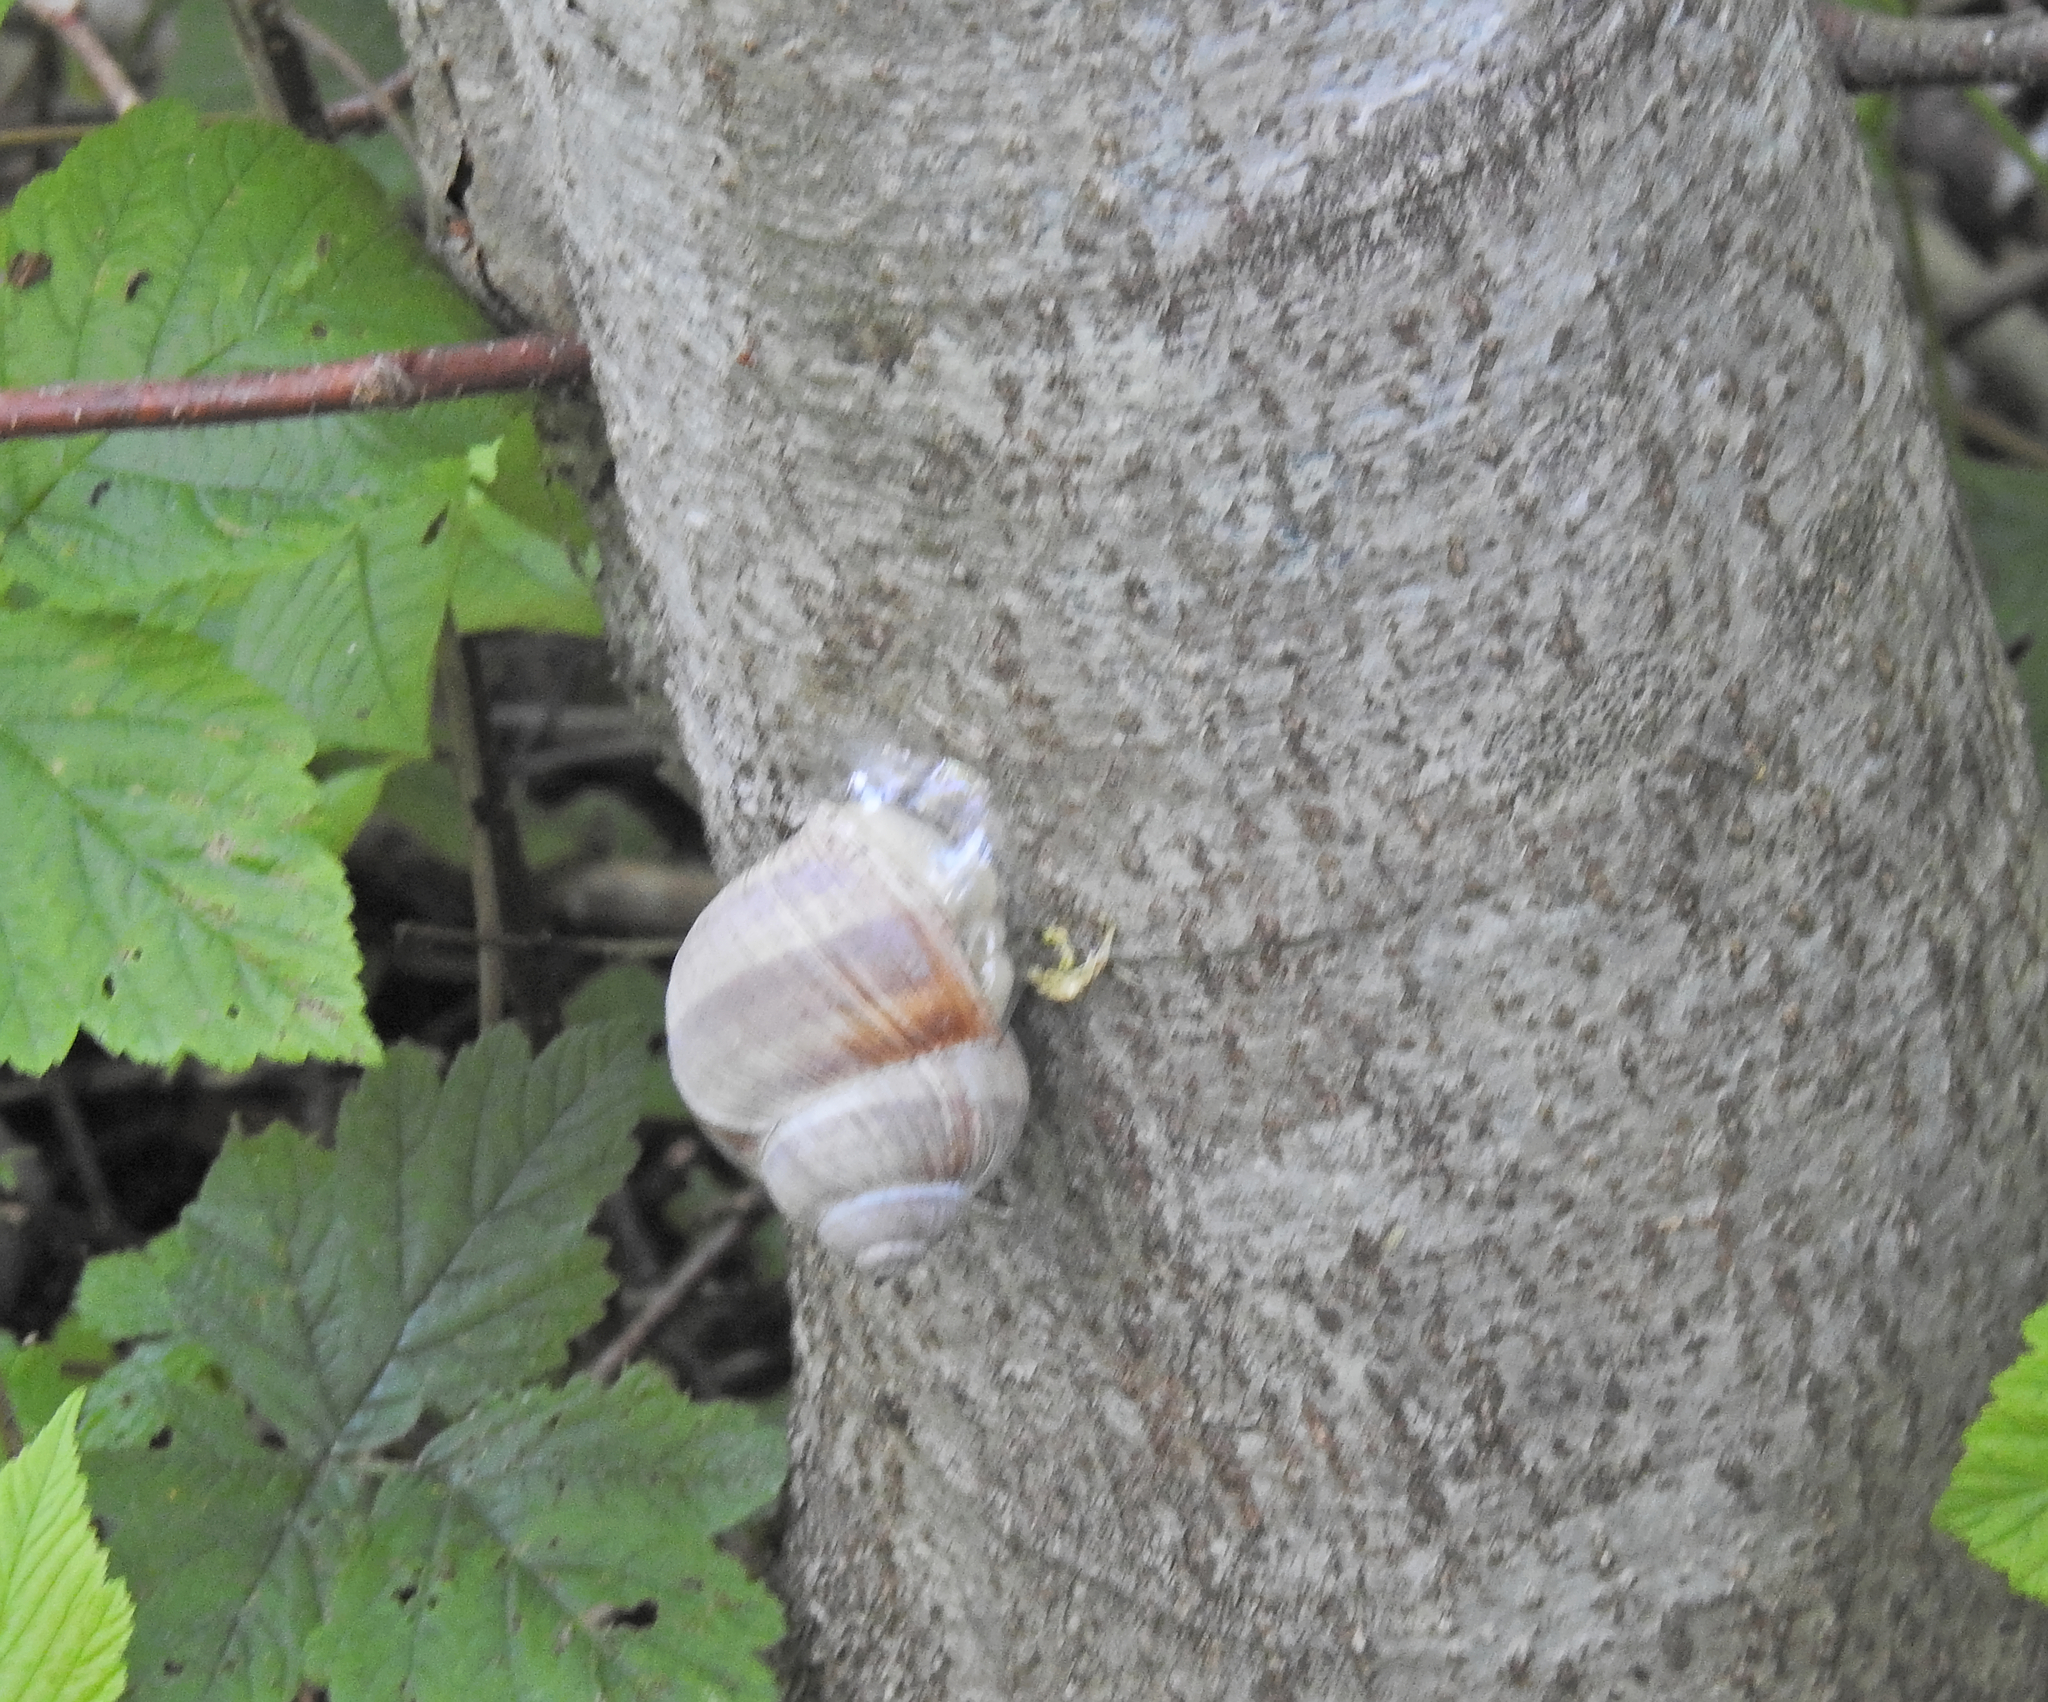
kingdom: Animalia
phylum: Mollusca
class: Gastropoda
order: Stylommatophora
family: Helicidae
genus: Helix
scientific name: Helix pomatia
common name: Roman snail
